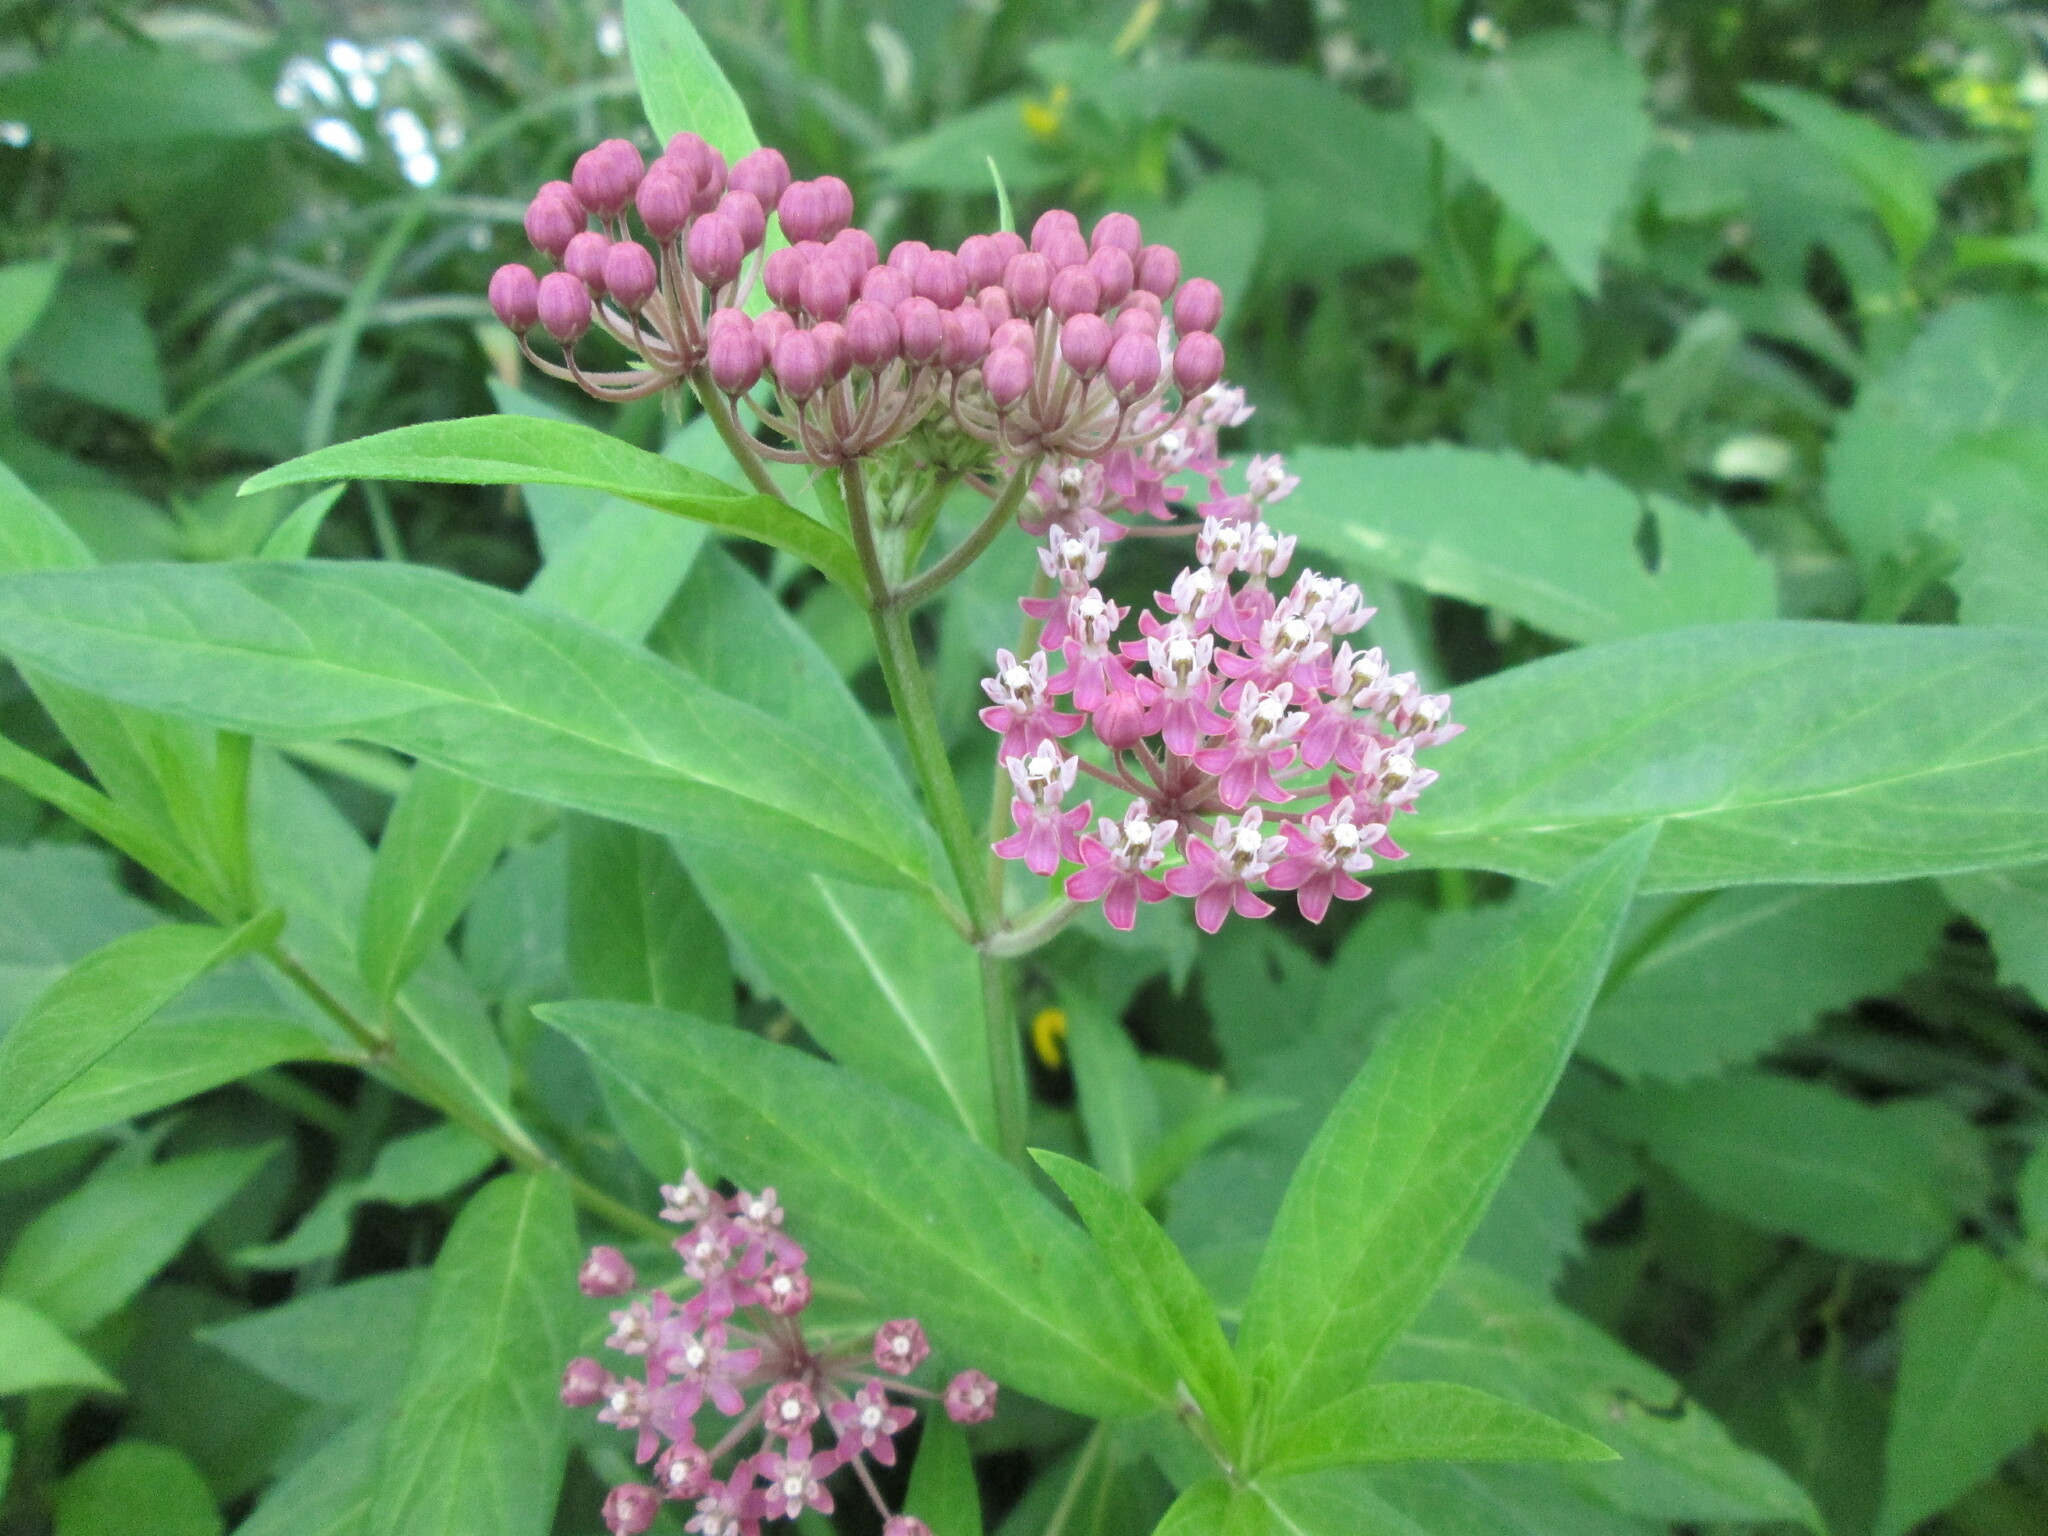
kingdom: Plantae
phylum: Tracheophyta
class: Magnoliopsida
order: Gentianales
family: Apocynaceae
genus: Asclepias
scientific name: Asclepias incarnata
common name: Swamp milkweed
